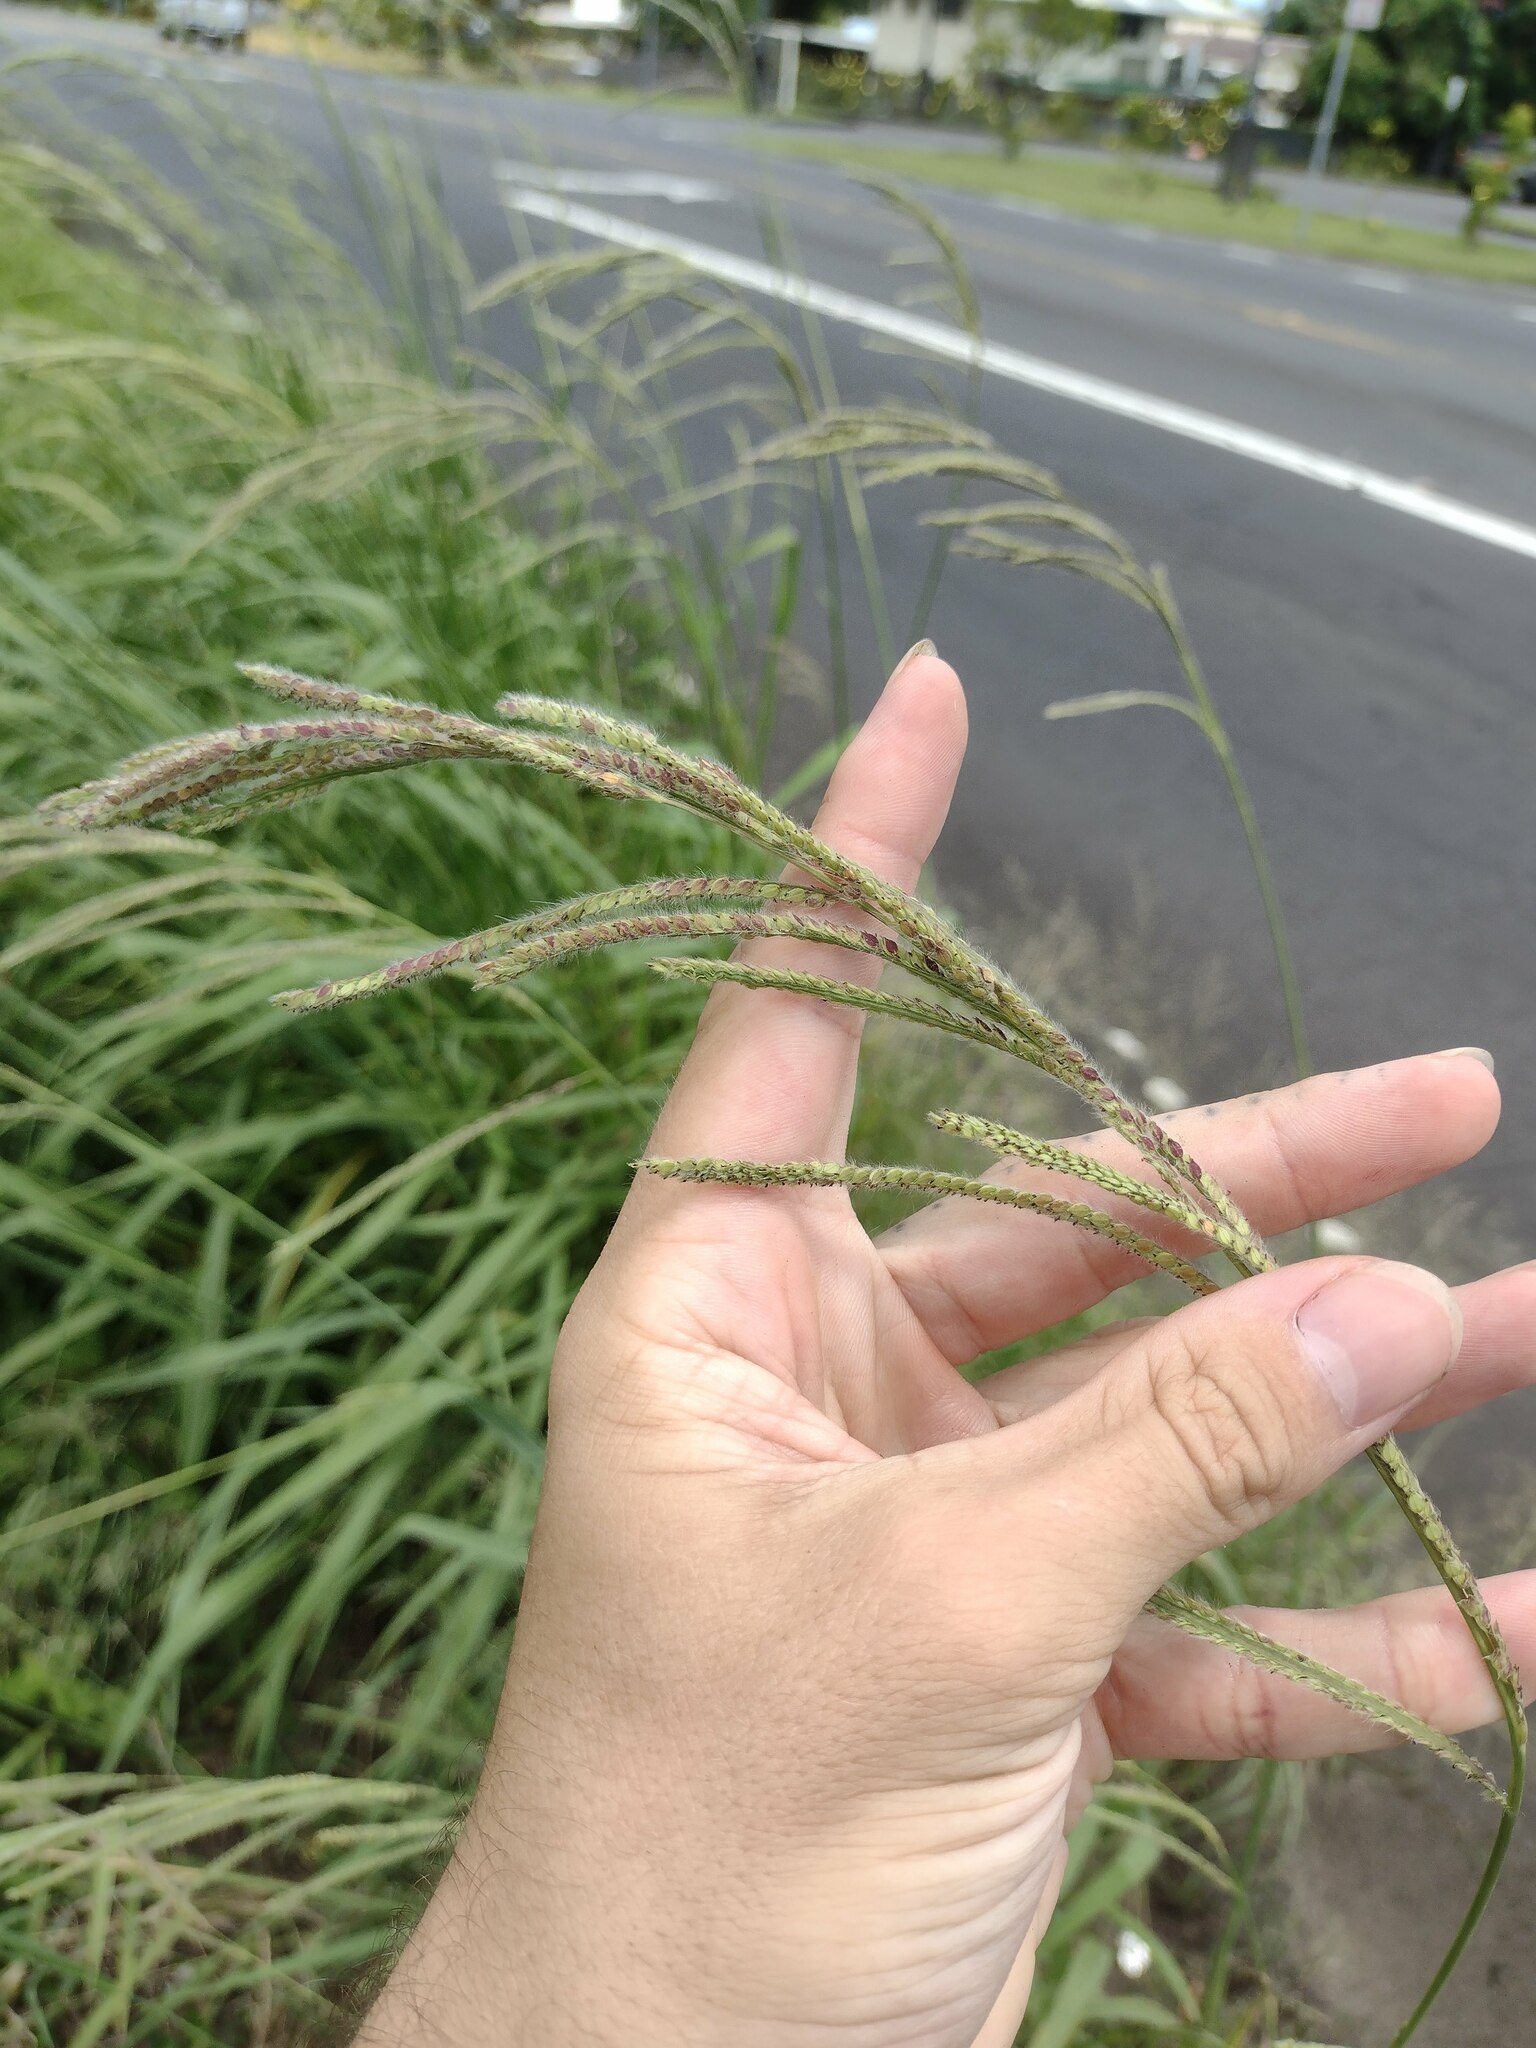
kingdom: Plantae
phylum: Tracheophyta
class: Liliopsida
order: Poales
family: Poaceae
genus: Paspalum
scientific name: Paspalum urvillei
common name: Vasey's grass
